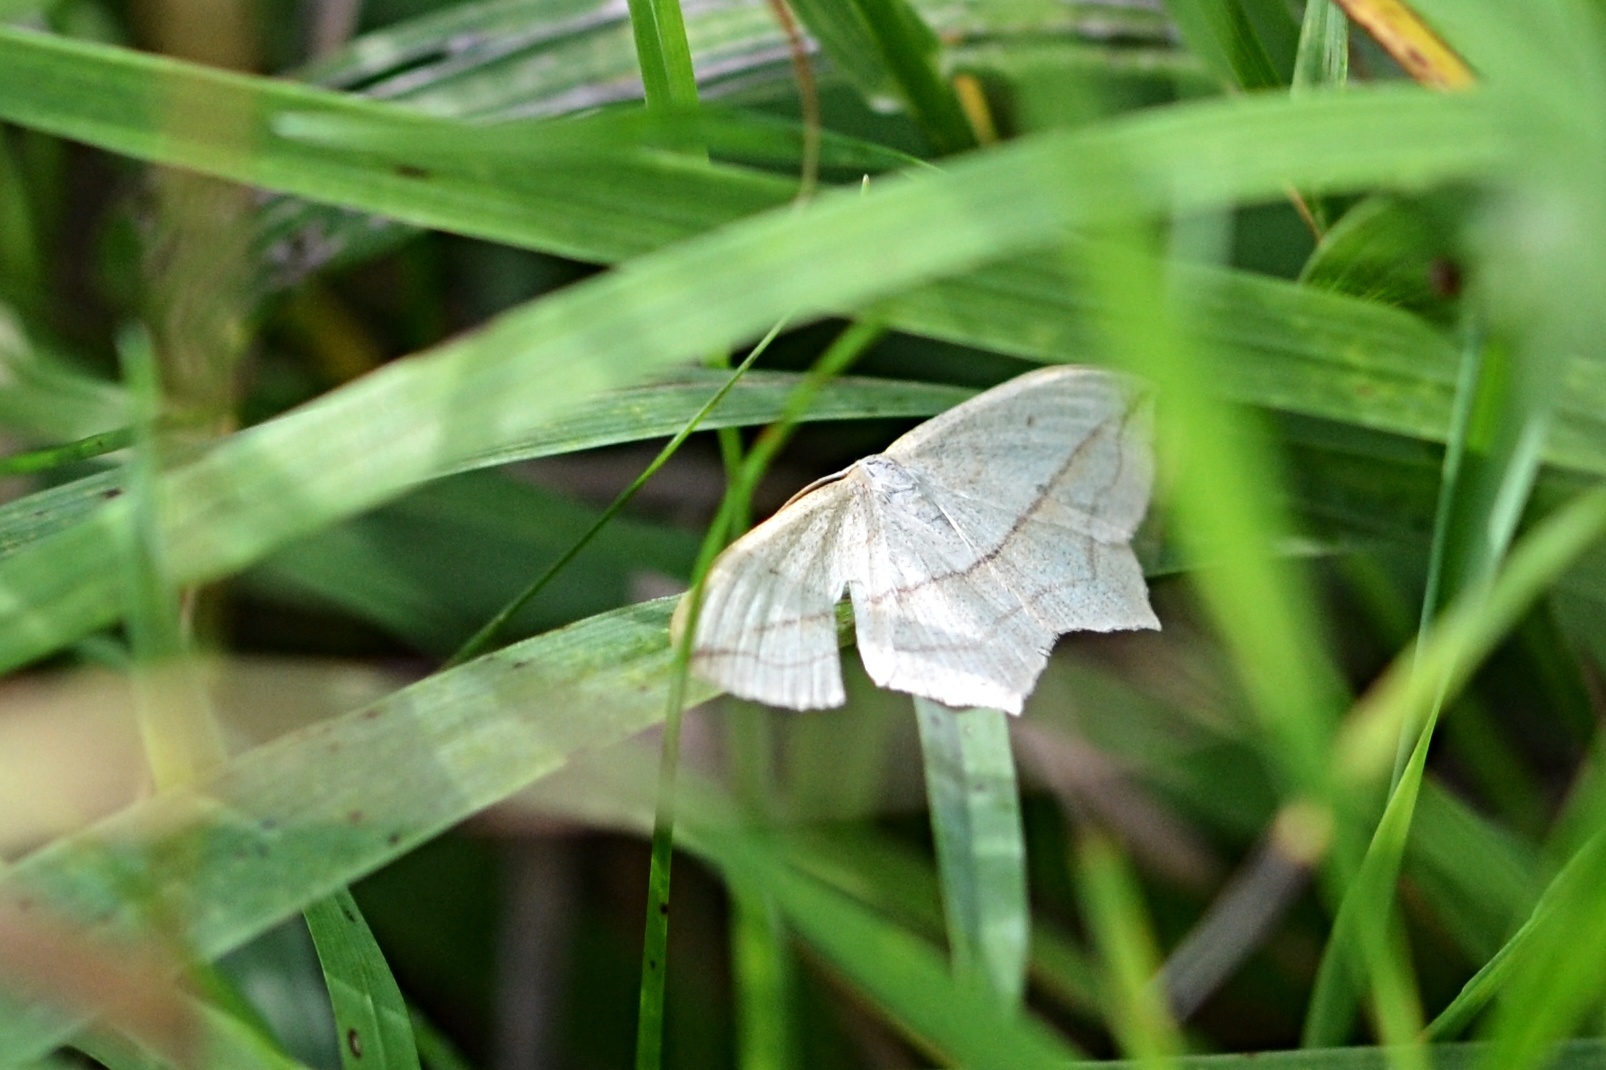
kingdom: Animalia
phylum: Arthropoda
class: Insecta
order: Lepidoptera
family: Geometridae
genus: Timandra
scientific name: Timandra comae
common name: Blood-vein
